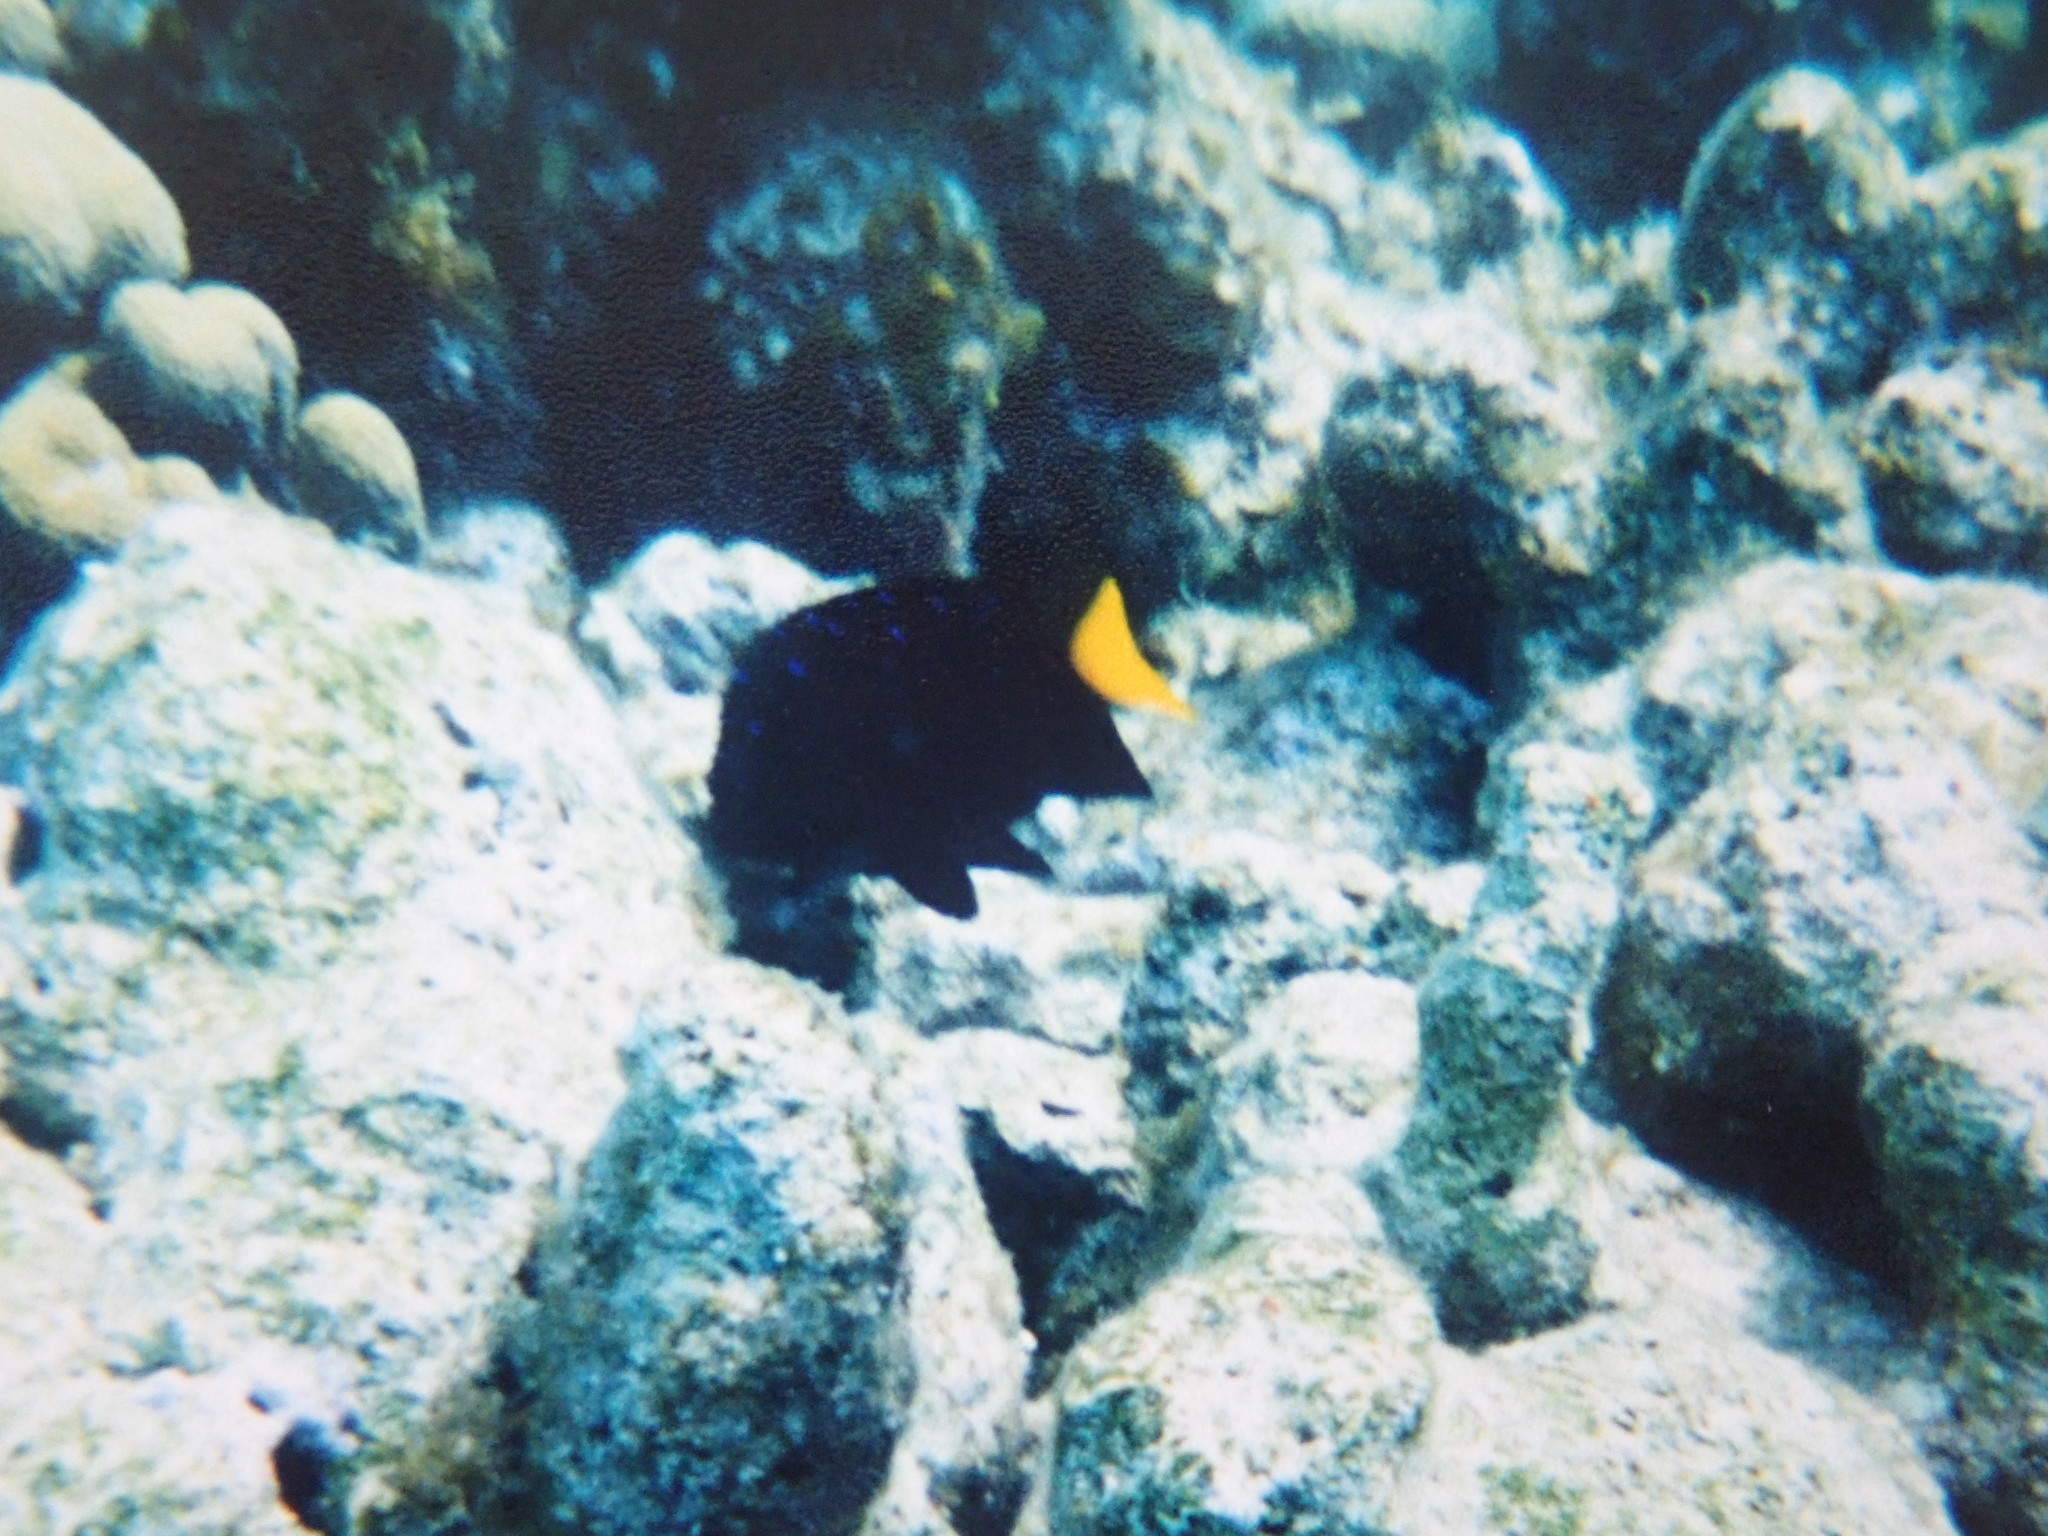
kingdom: Animalia
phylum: Chordata
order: Perciformes
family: Pomacentridae
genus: Microspathodon
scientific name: Microspathodon chrysurus
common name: Yellowtail damselfish
